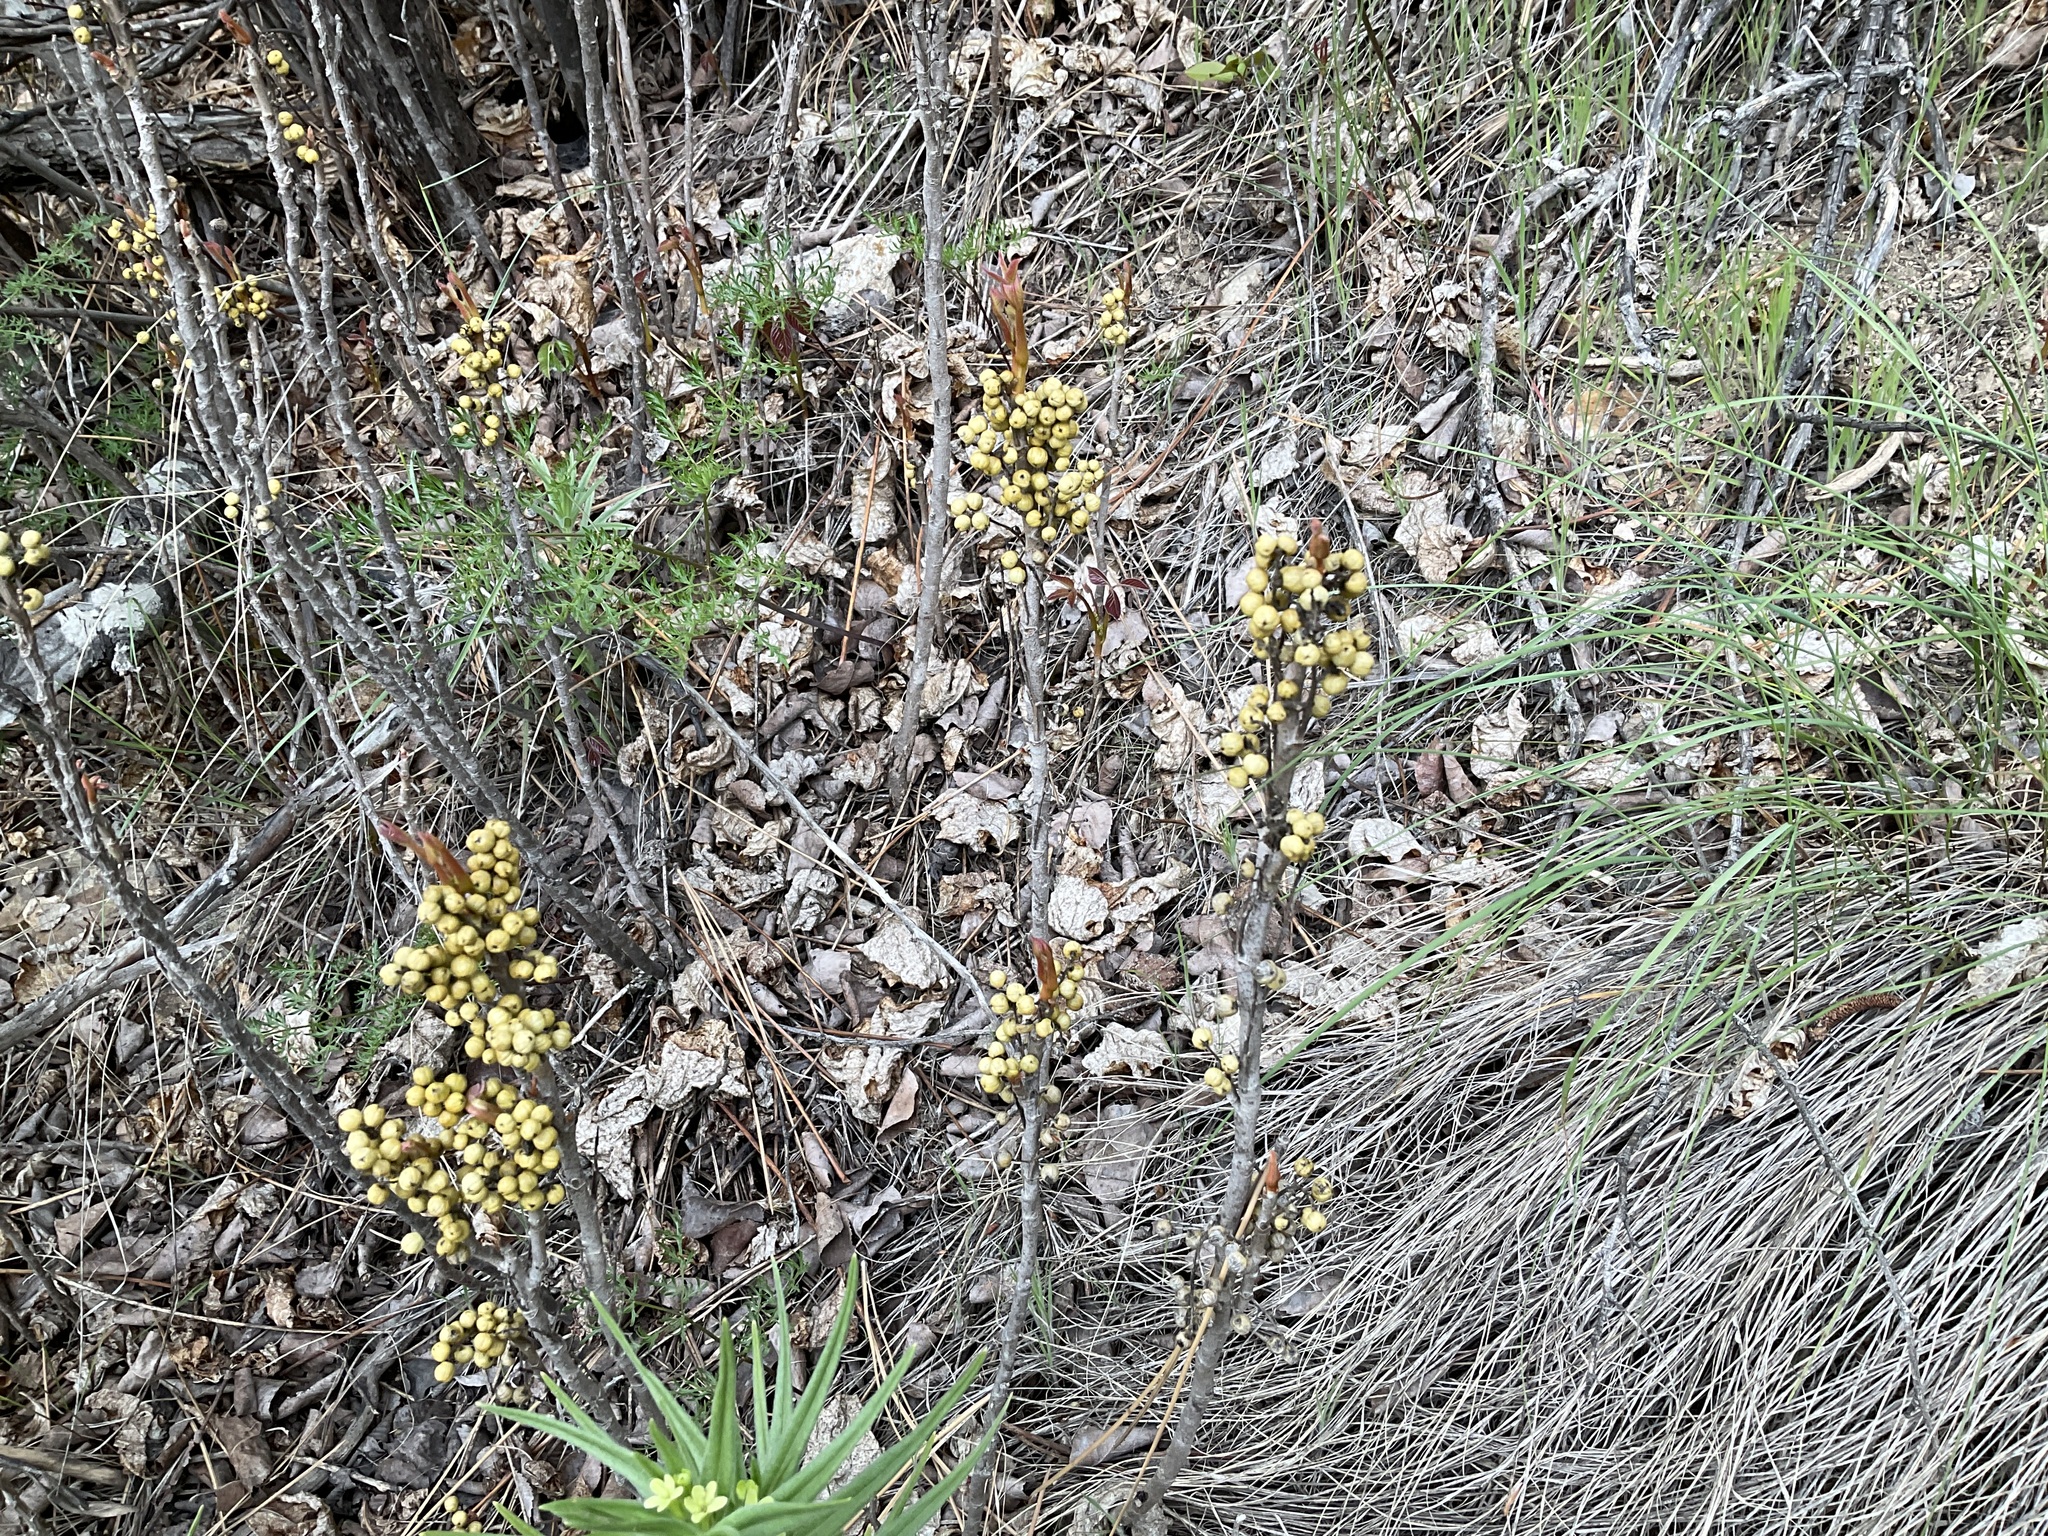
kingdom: Plantae
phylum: Tracheophyta
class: Magnoliopsida
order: Sapindales
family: Anacardiaceae
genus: Toxicodendron
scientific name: Toxicodendron rydbergii
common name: Rydberg's poison-ivy
